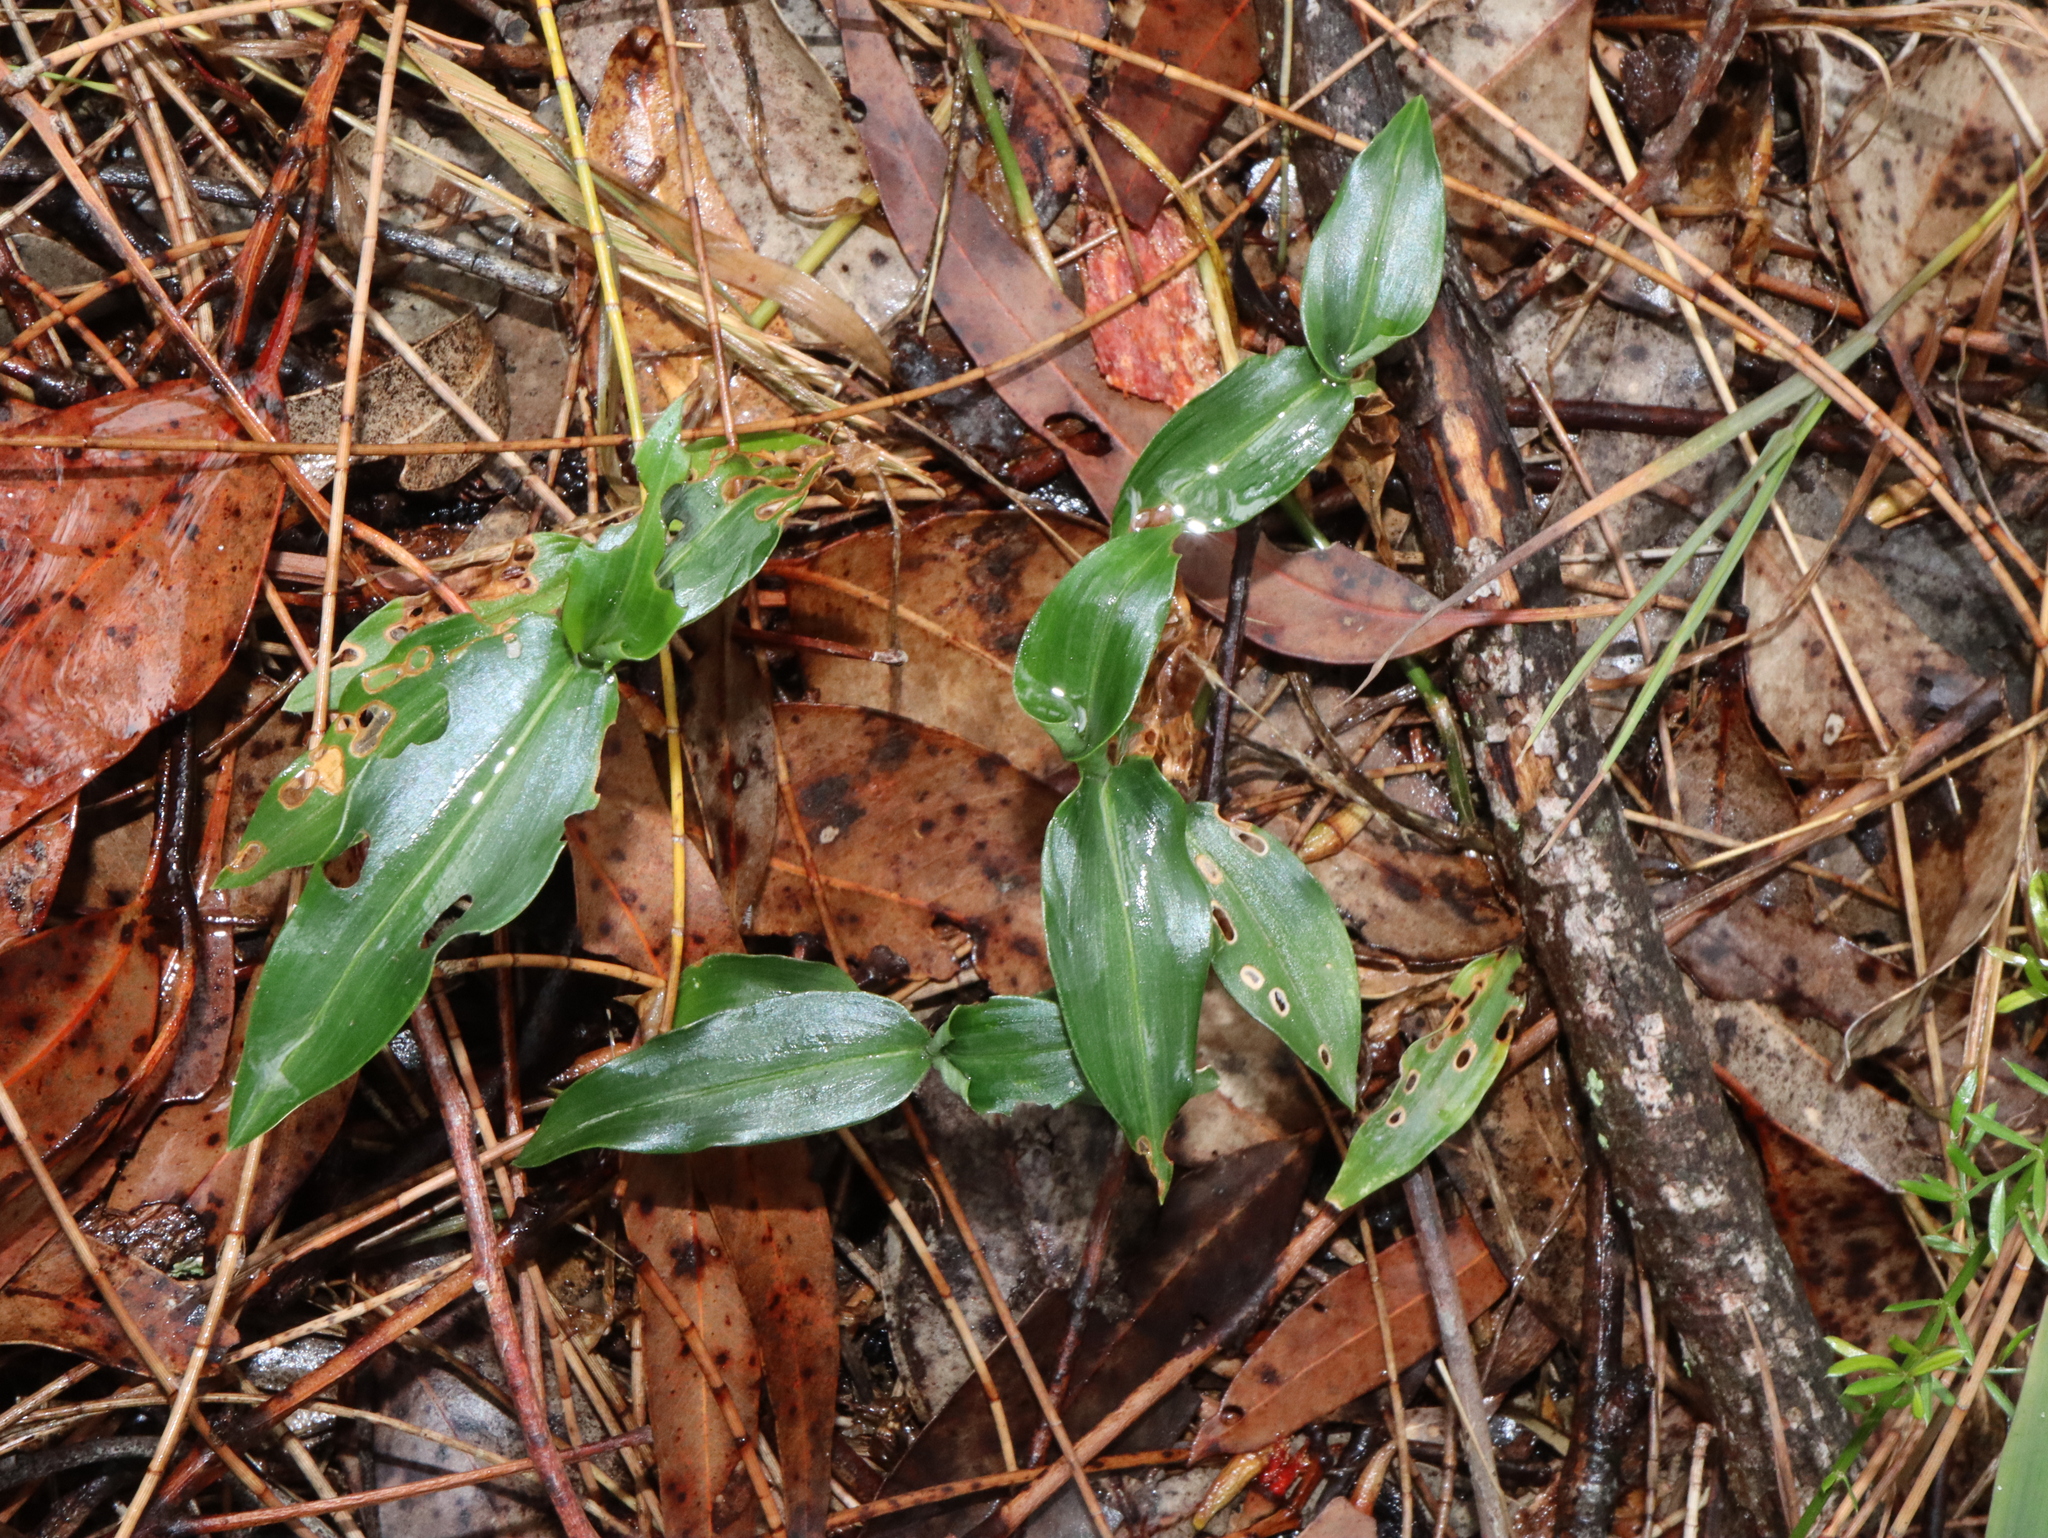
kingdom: Plantae
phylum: Tracheophyta
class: Liliopsida
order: Commelinales
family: Commelinaceae
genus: Commelina
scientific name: Commelina cyanea
